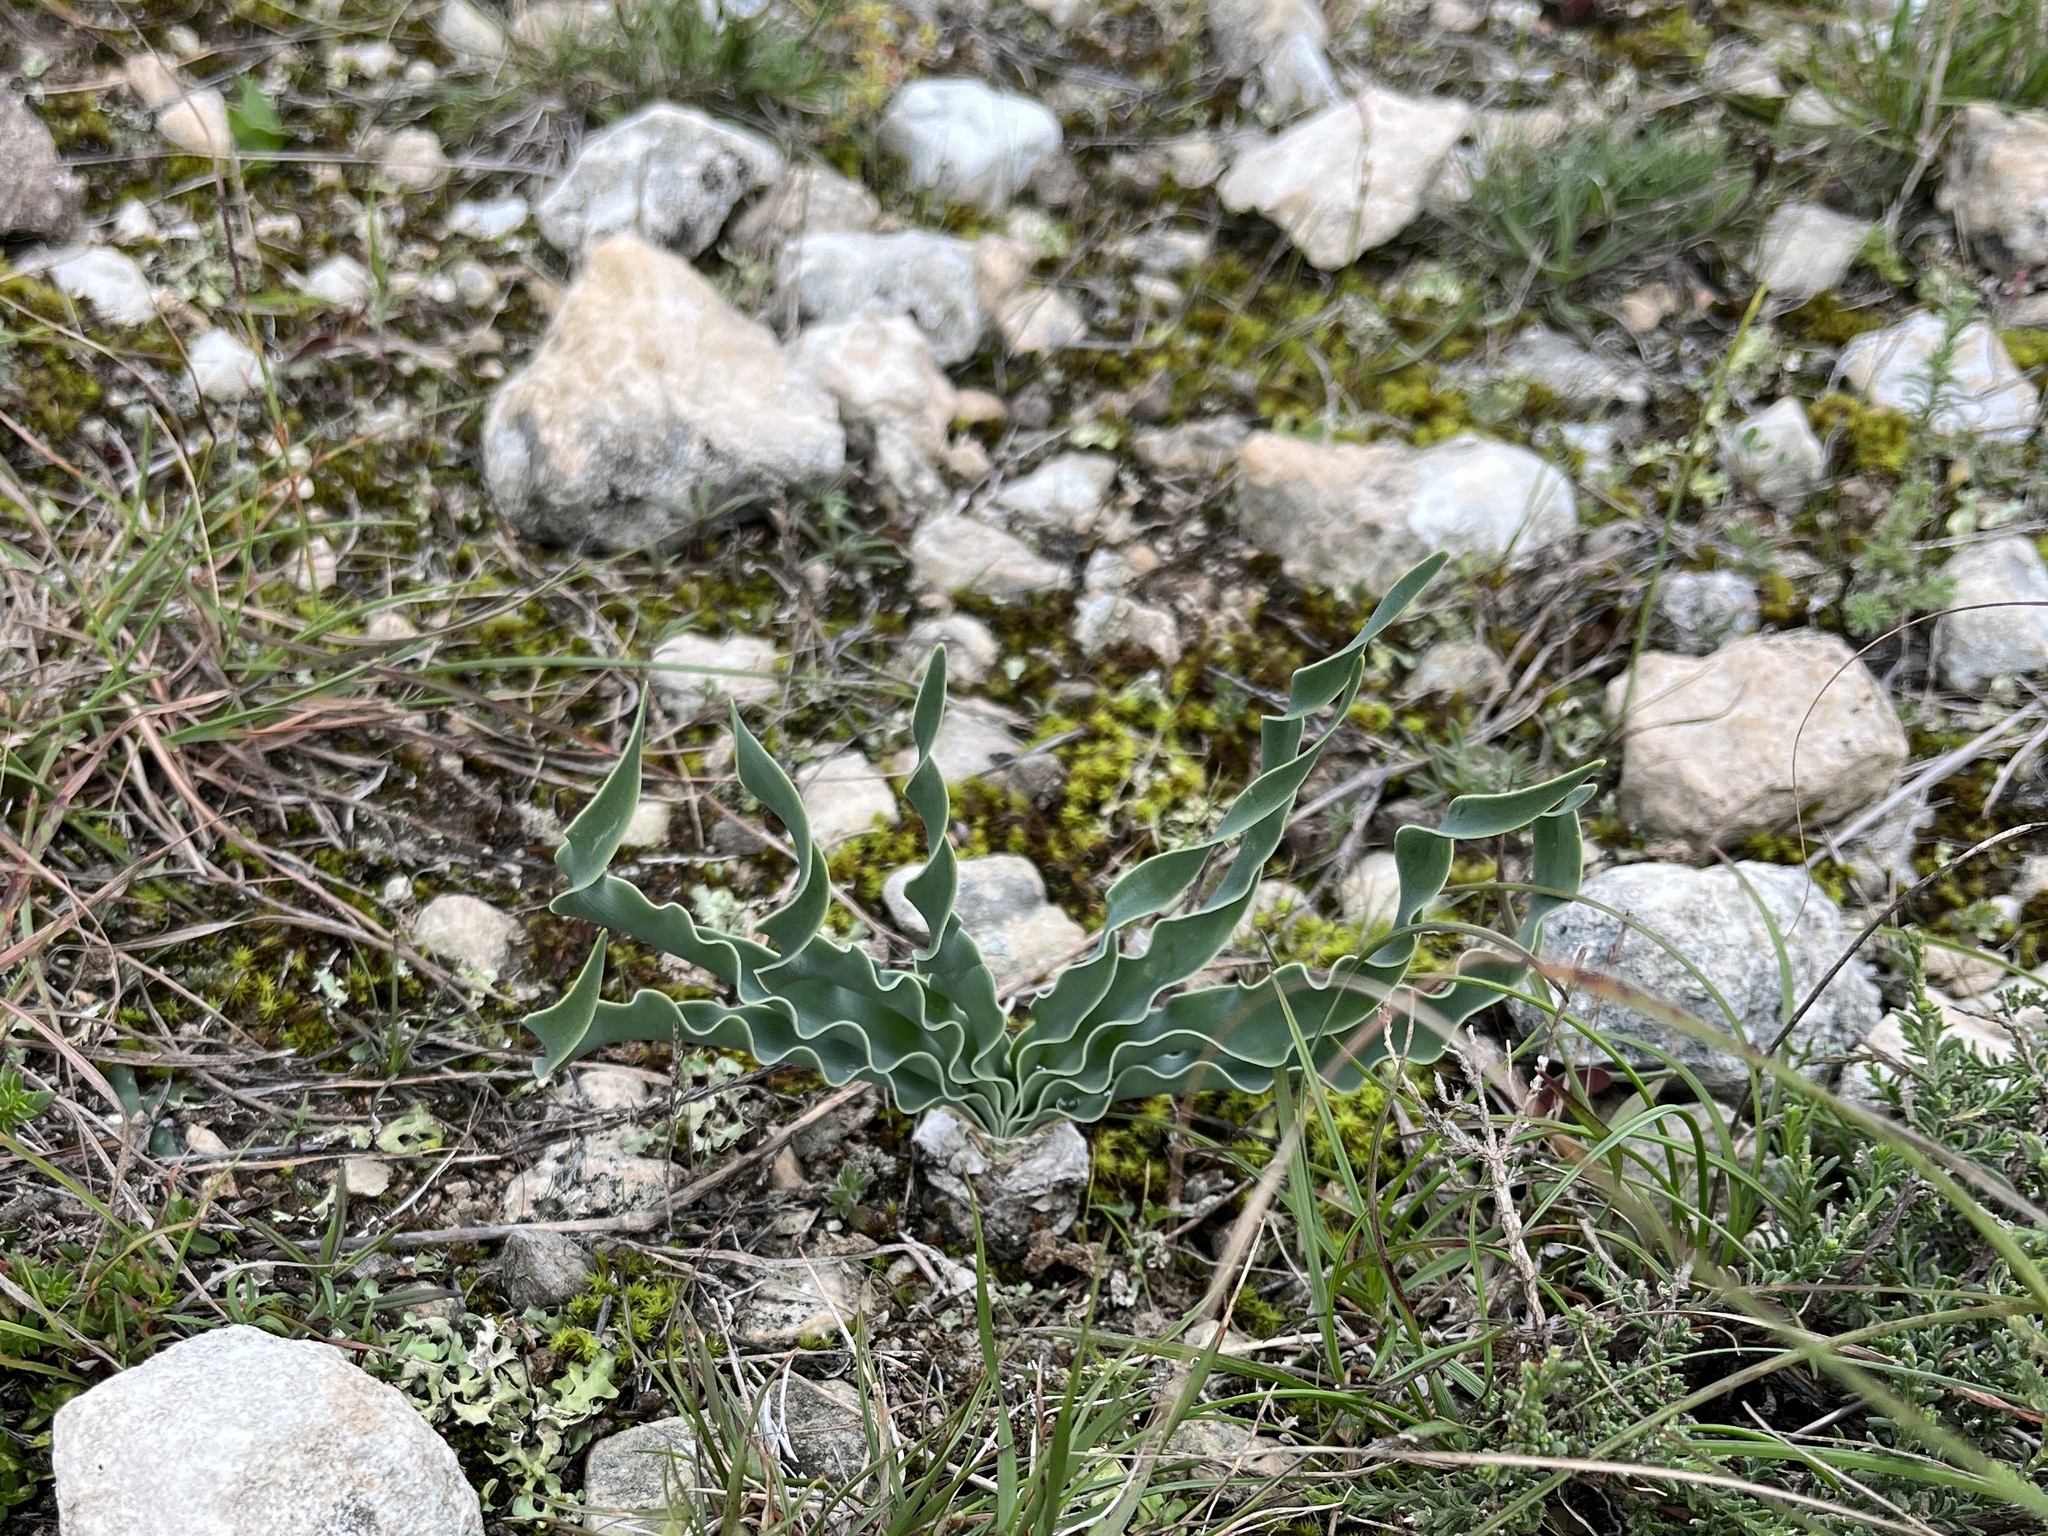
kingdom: Plantae
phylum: Tracheophyta
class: Liliopsida
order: Asparagales
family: Amaryllidaceae
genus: Boophone
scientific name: Boophone disticha
